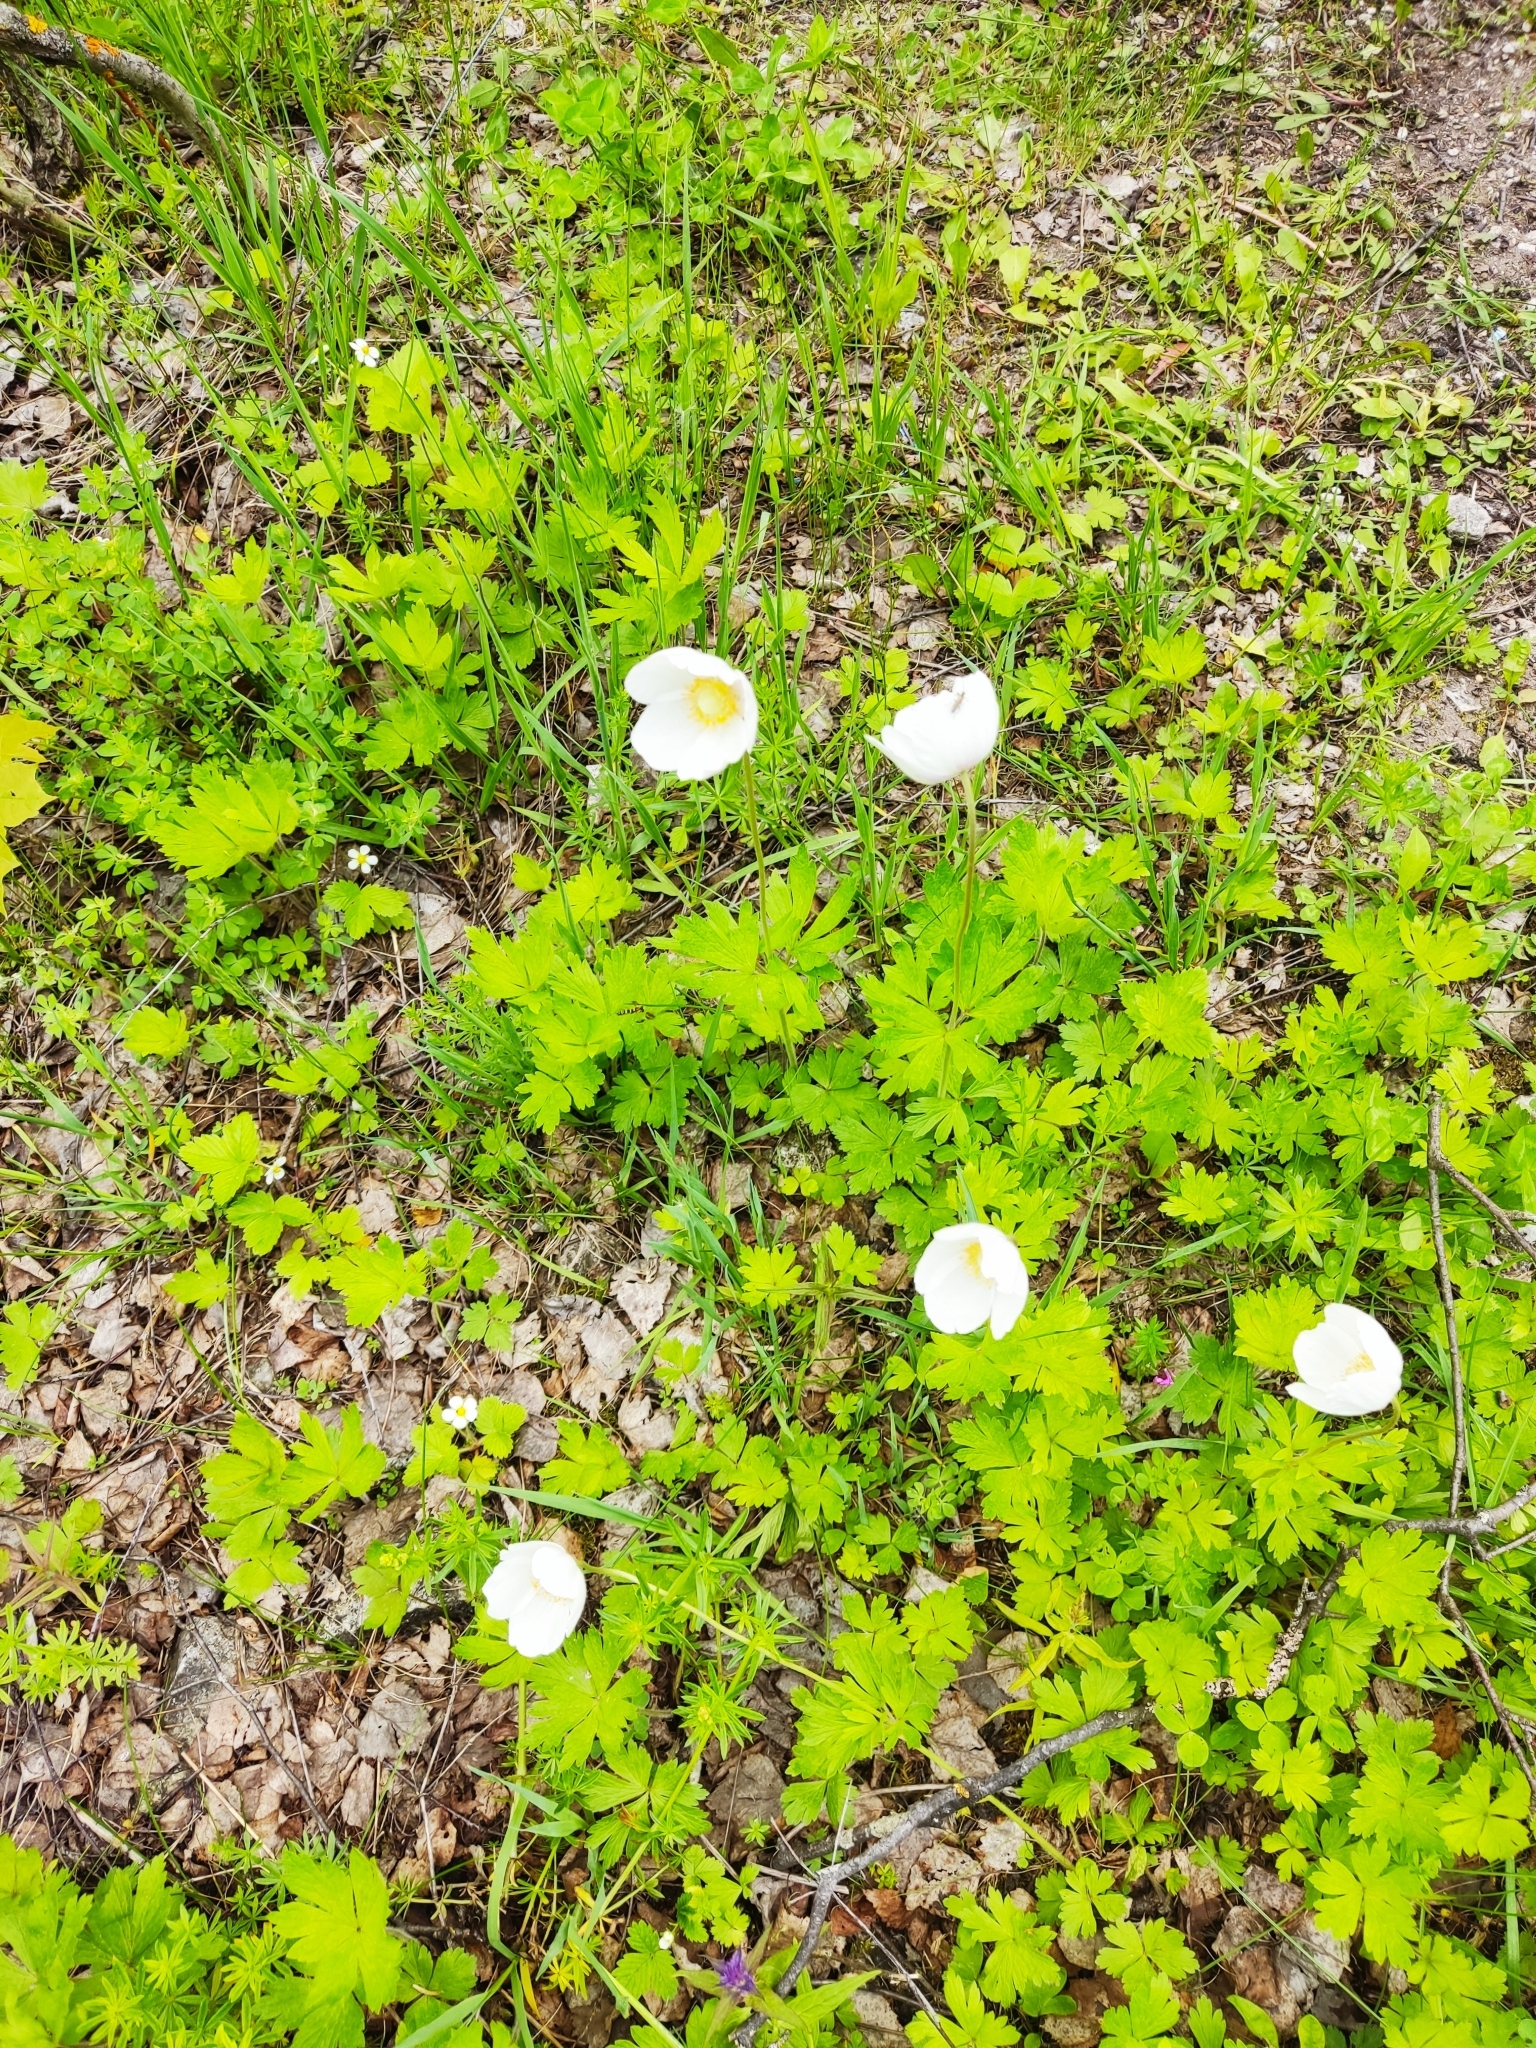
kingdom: Plantae
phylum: Tracheophyta
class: Magnoliopsida
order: Ranunculales
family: Ranunculaceae
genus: Anemone
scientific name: Anemone sylvestris
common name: Snowdrop anemone
